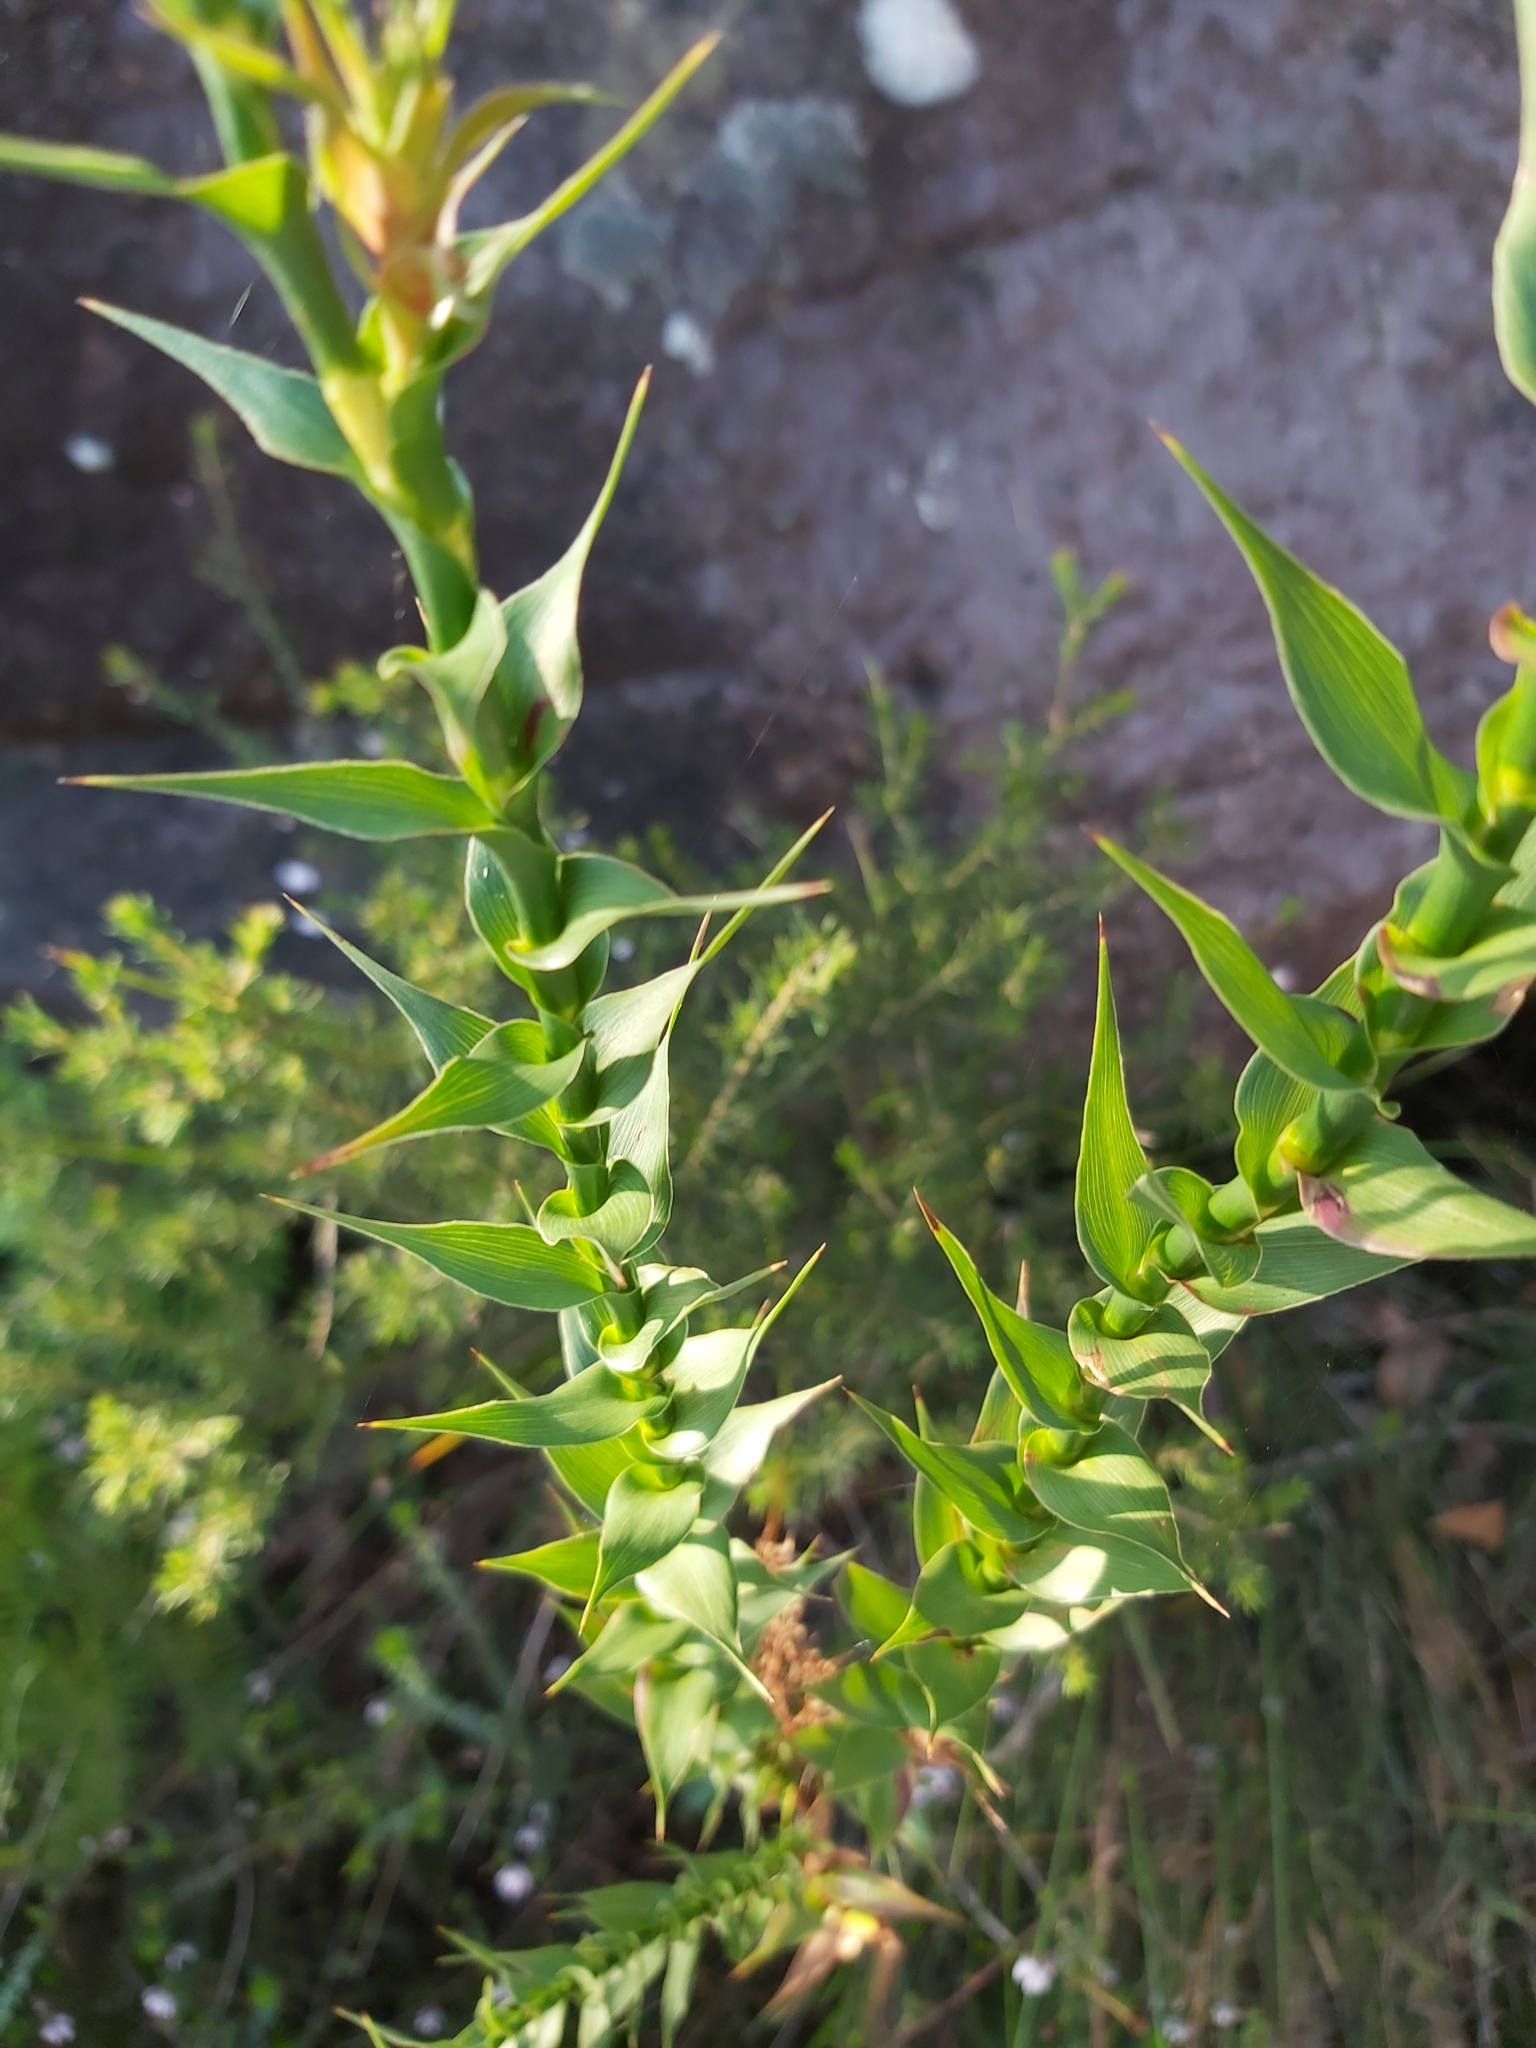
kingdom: Plantae
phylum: Tracheophyta
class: Magnoliopsida
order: Ericales
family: Ericaceae
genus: Sprengelia
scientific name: Sprengelia incarnata
